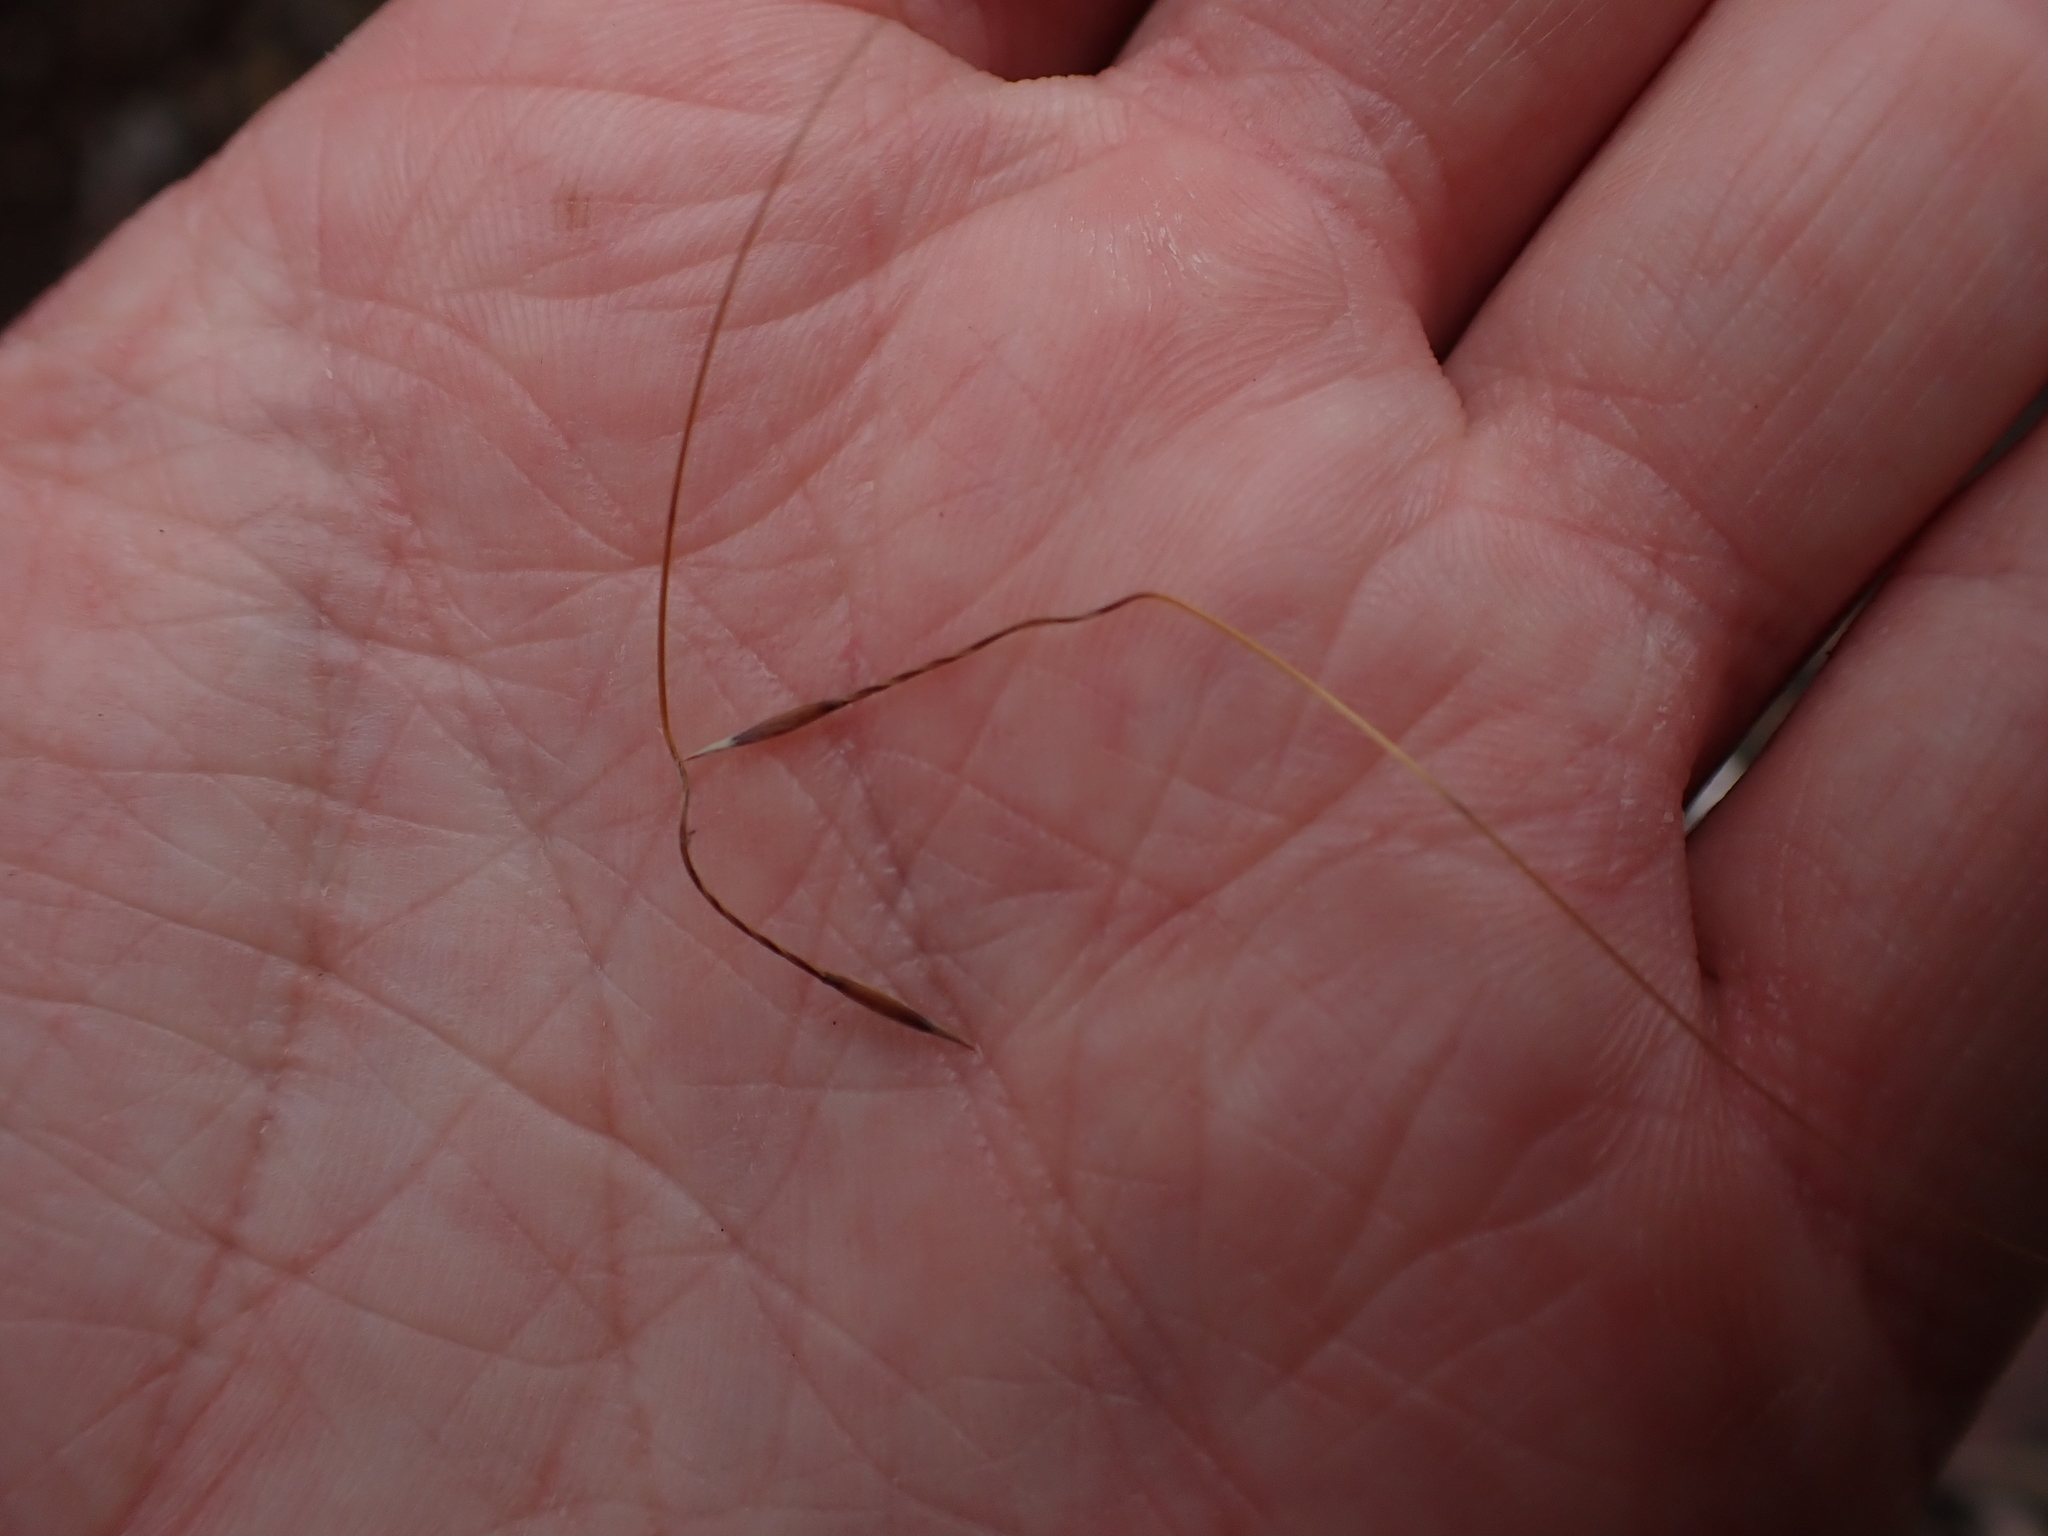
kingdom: Plantae
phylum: Tracheophyta
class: Liliopsida
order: Poales
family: Poaceae
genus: Austrostipa
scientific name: Austrostipa scabra
